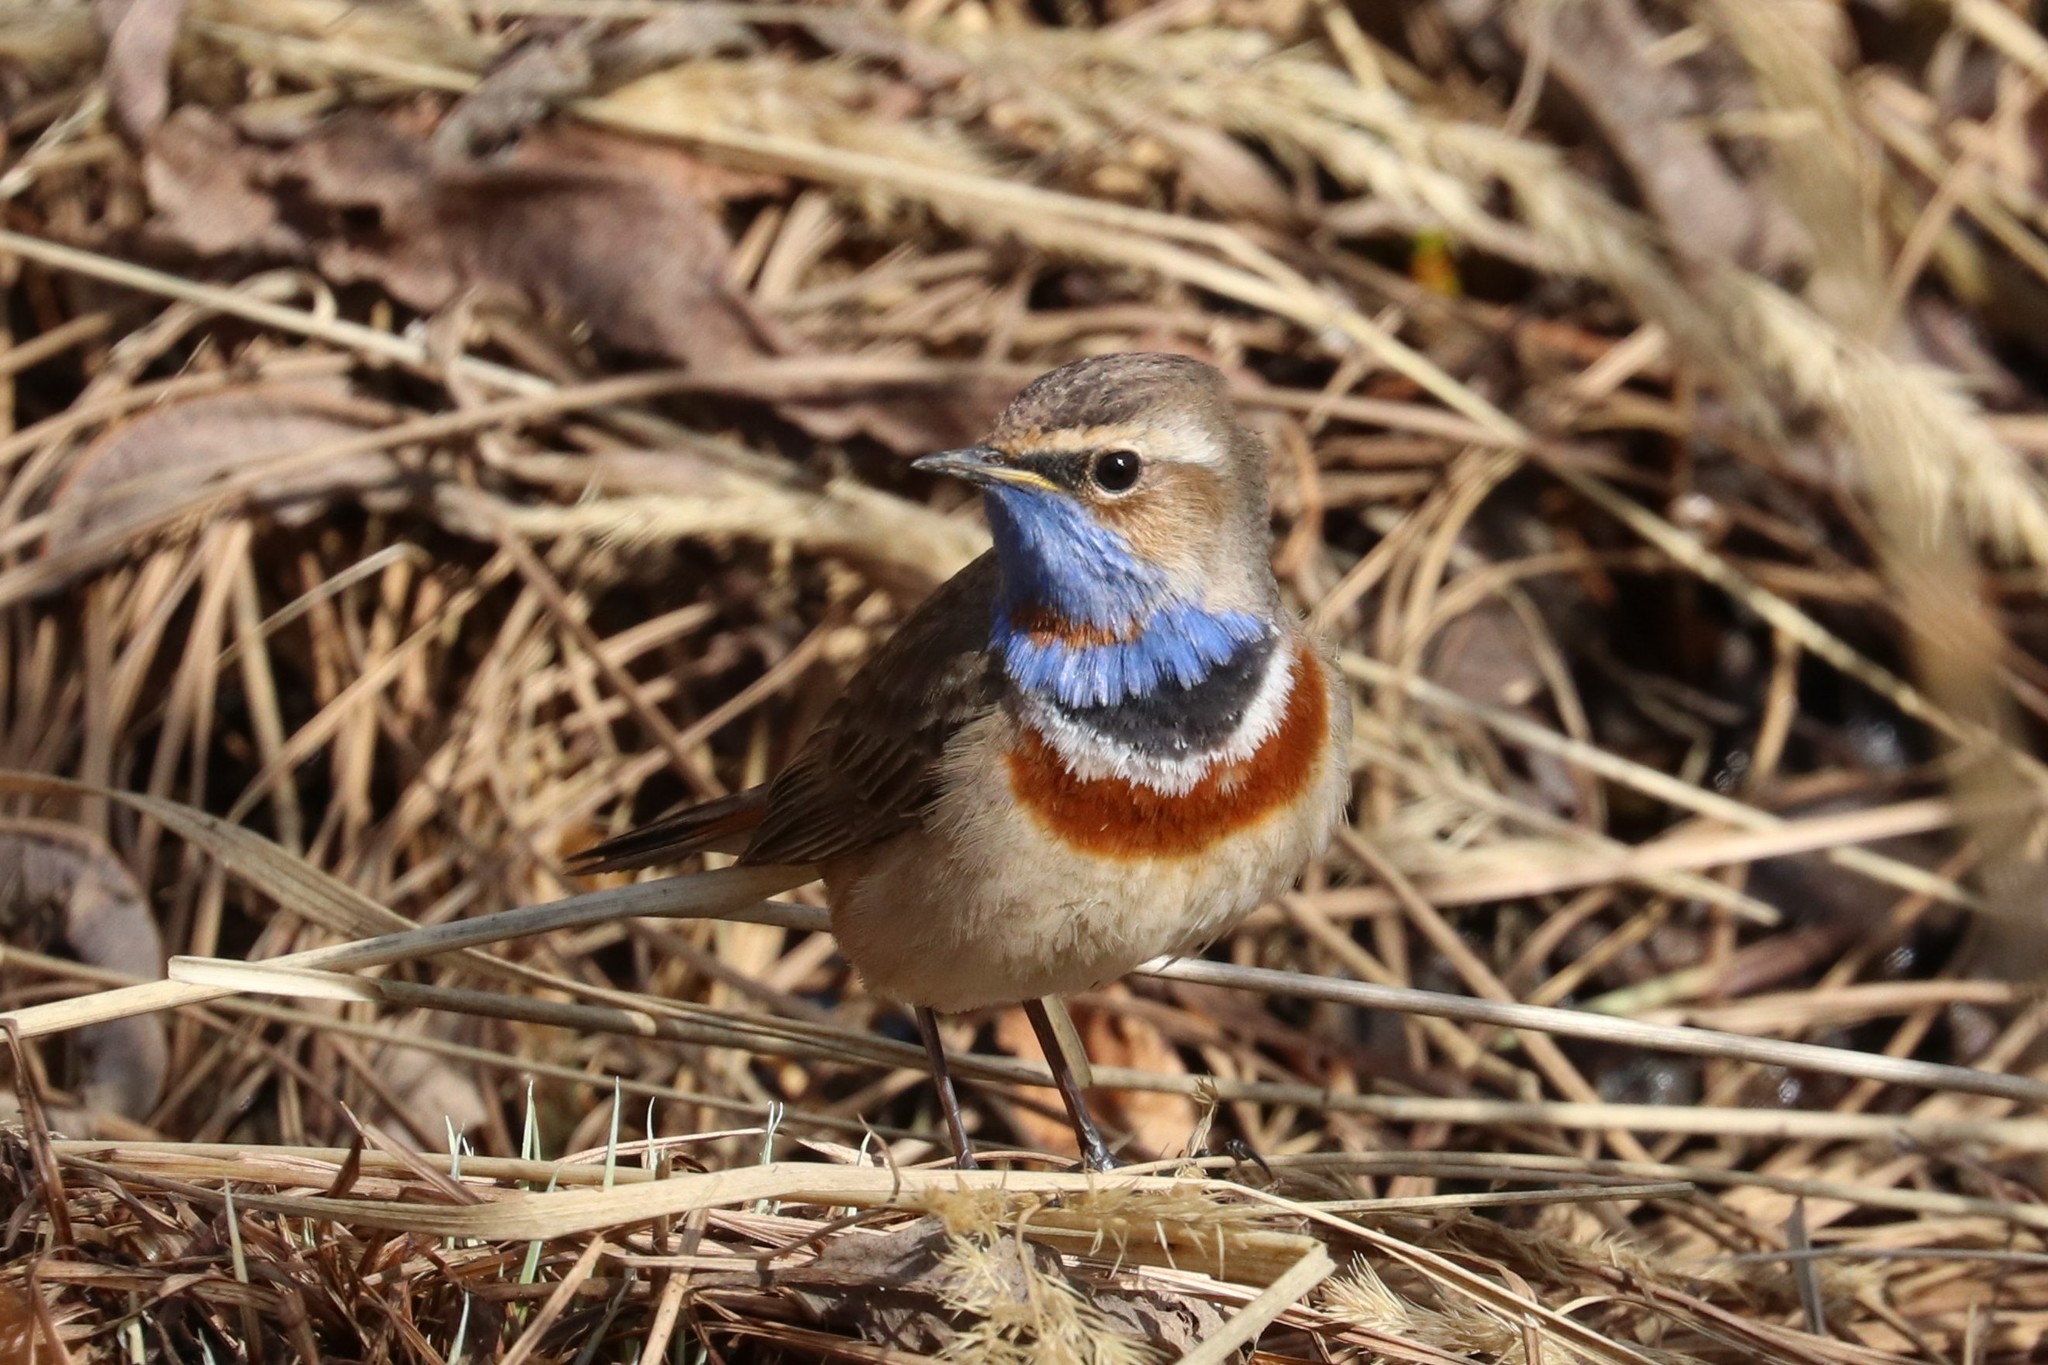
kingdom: Animalia
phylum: Chordata
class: Aves
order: Passeriformes
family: Muscicapidae
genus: Luscinia
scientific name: Luscinia svecica
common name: Bluethroat
